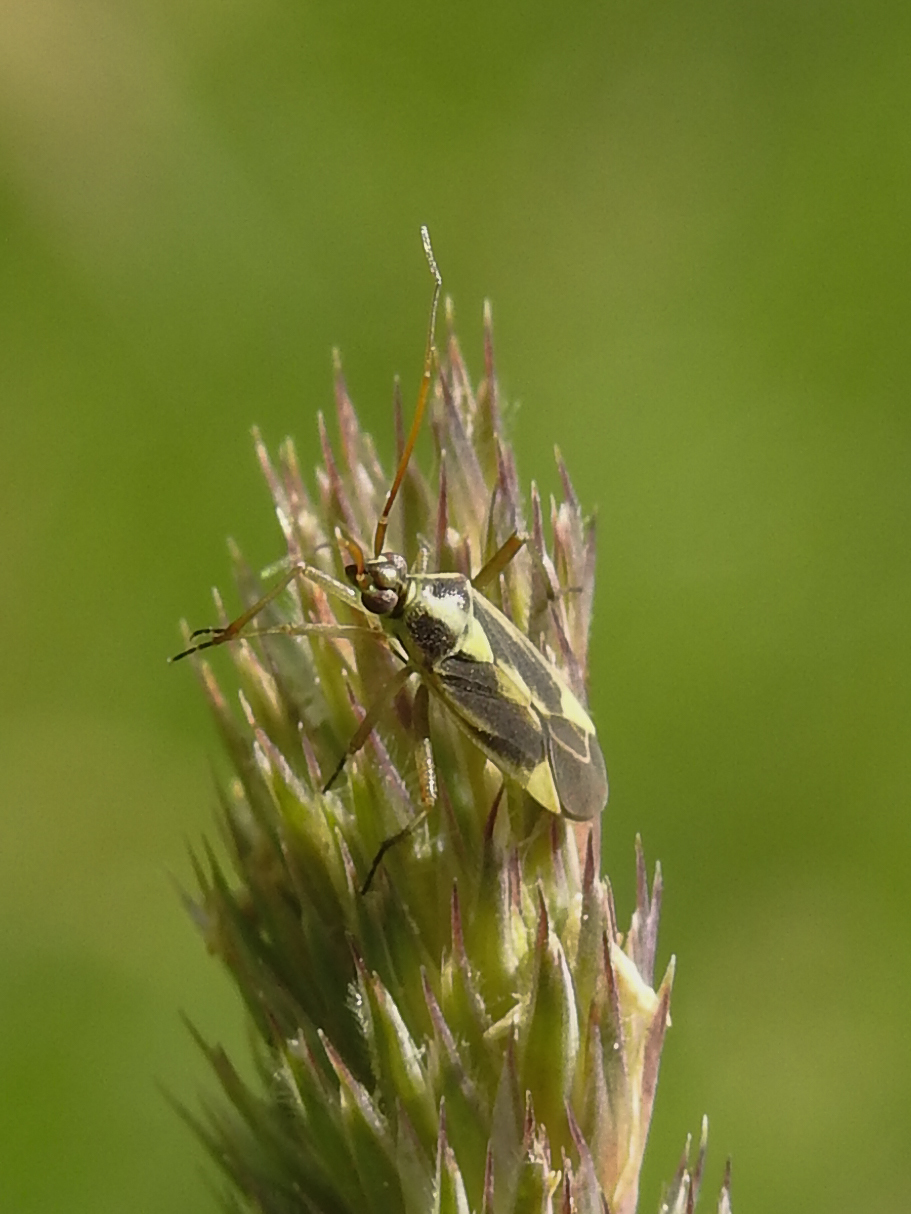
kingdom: Animalia
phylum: Arthropoda
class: Insecta
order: Hemiptera
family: Miridae
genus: Stenotus
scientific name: Stenotus binotatus
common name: Plant bug
